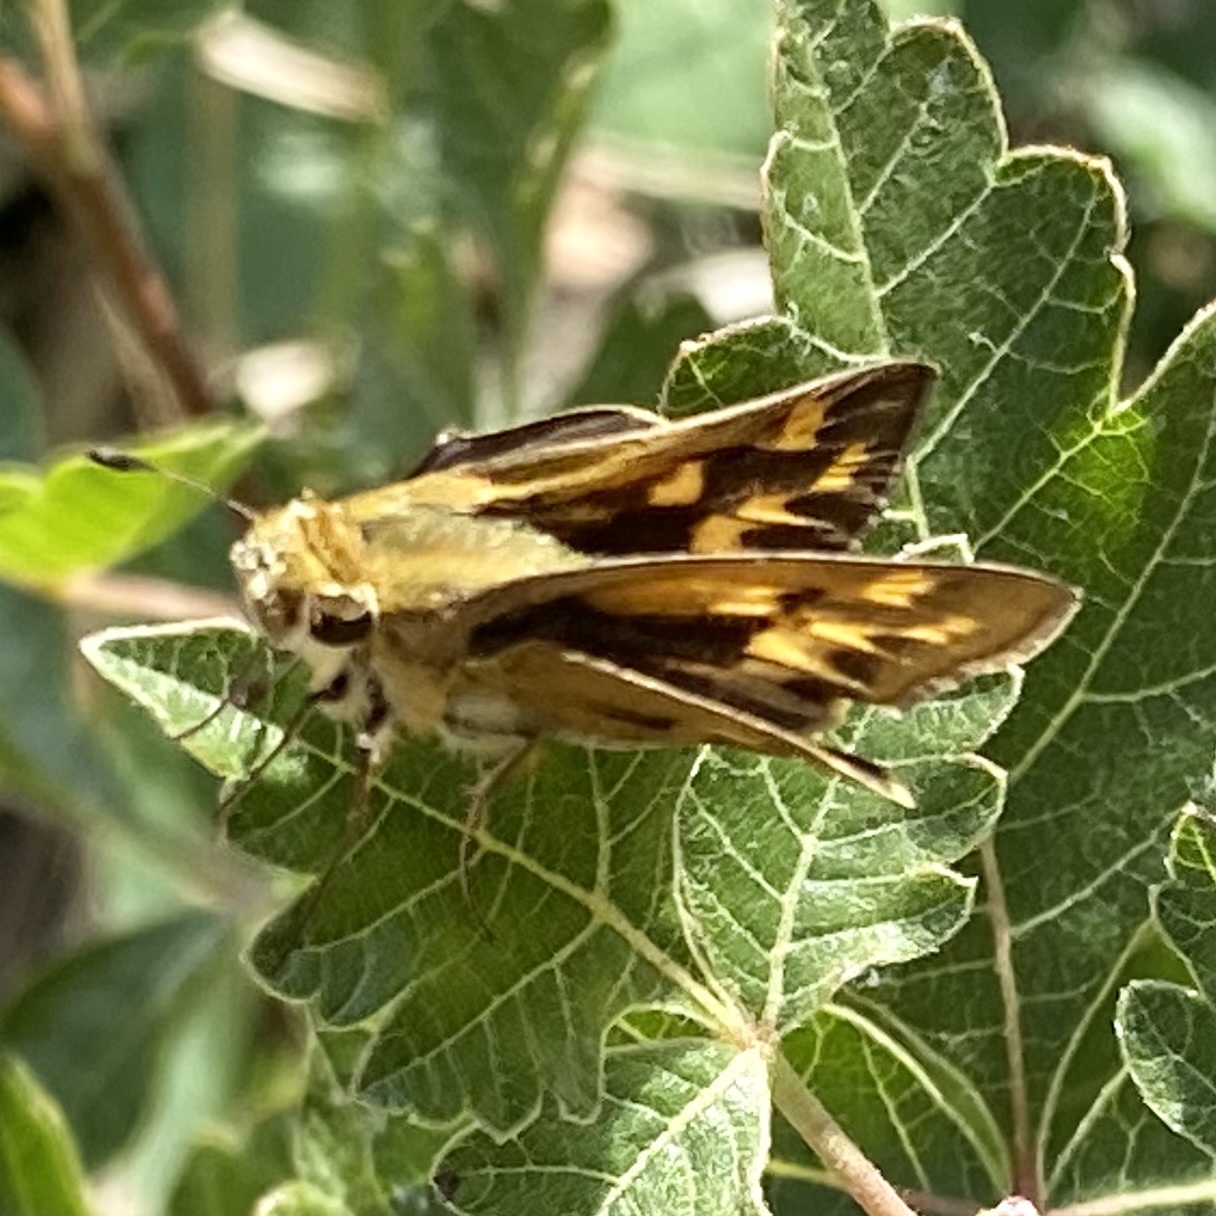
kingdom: Animalia
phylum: Arthropoda
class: Insecta
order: Lepidoptera
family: Hesperiidae
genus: Hylephila
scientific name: Hylephila phyleus
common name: Fiery skipper
